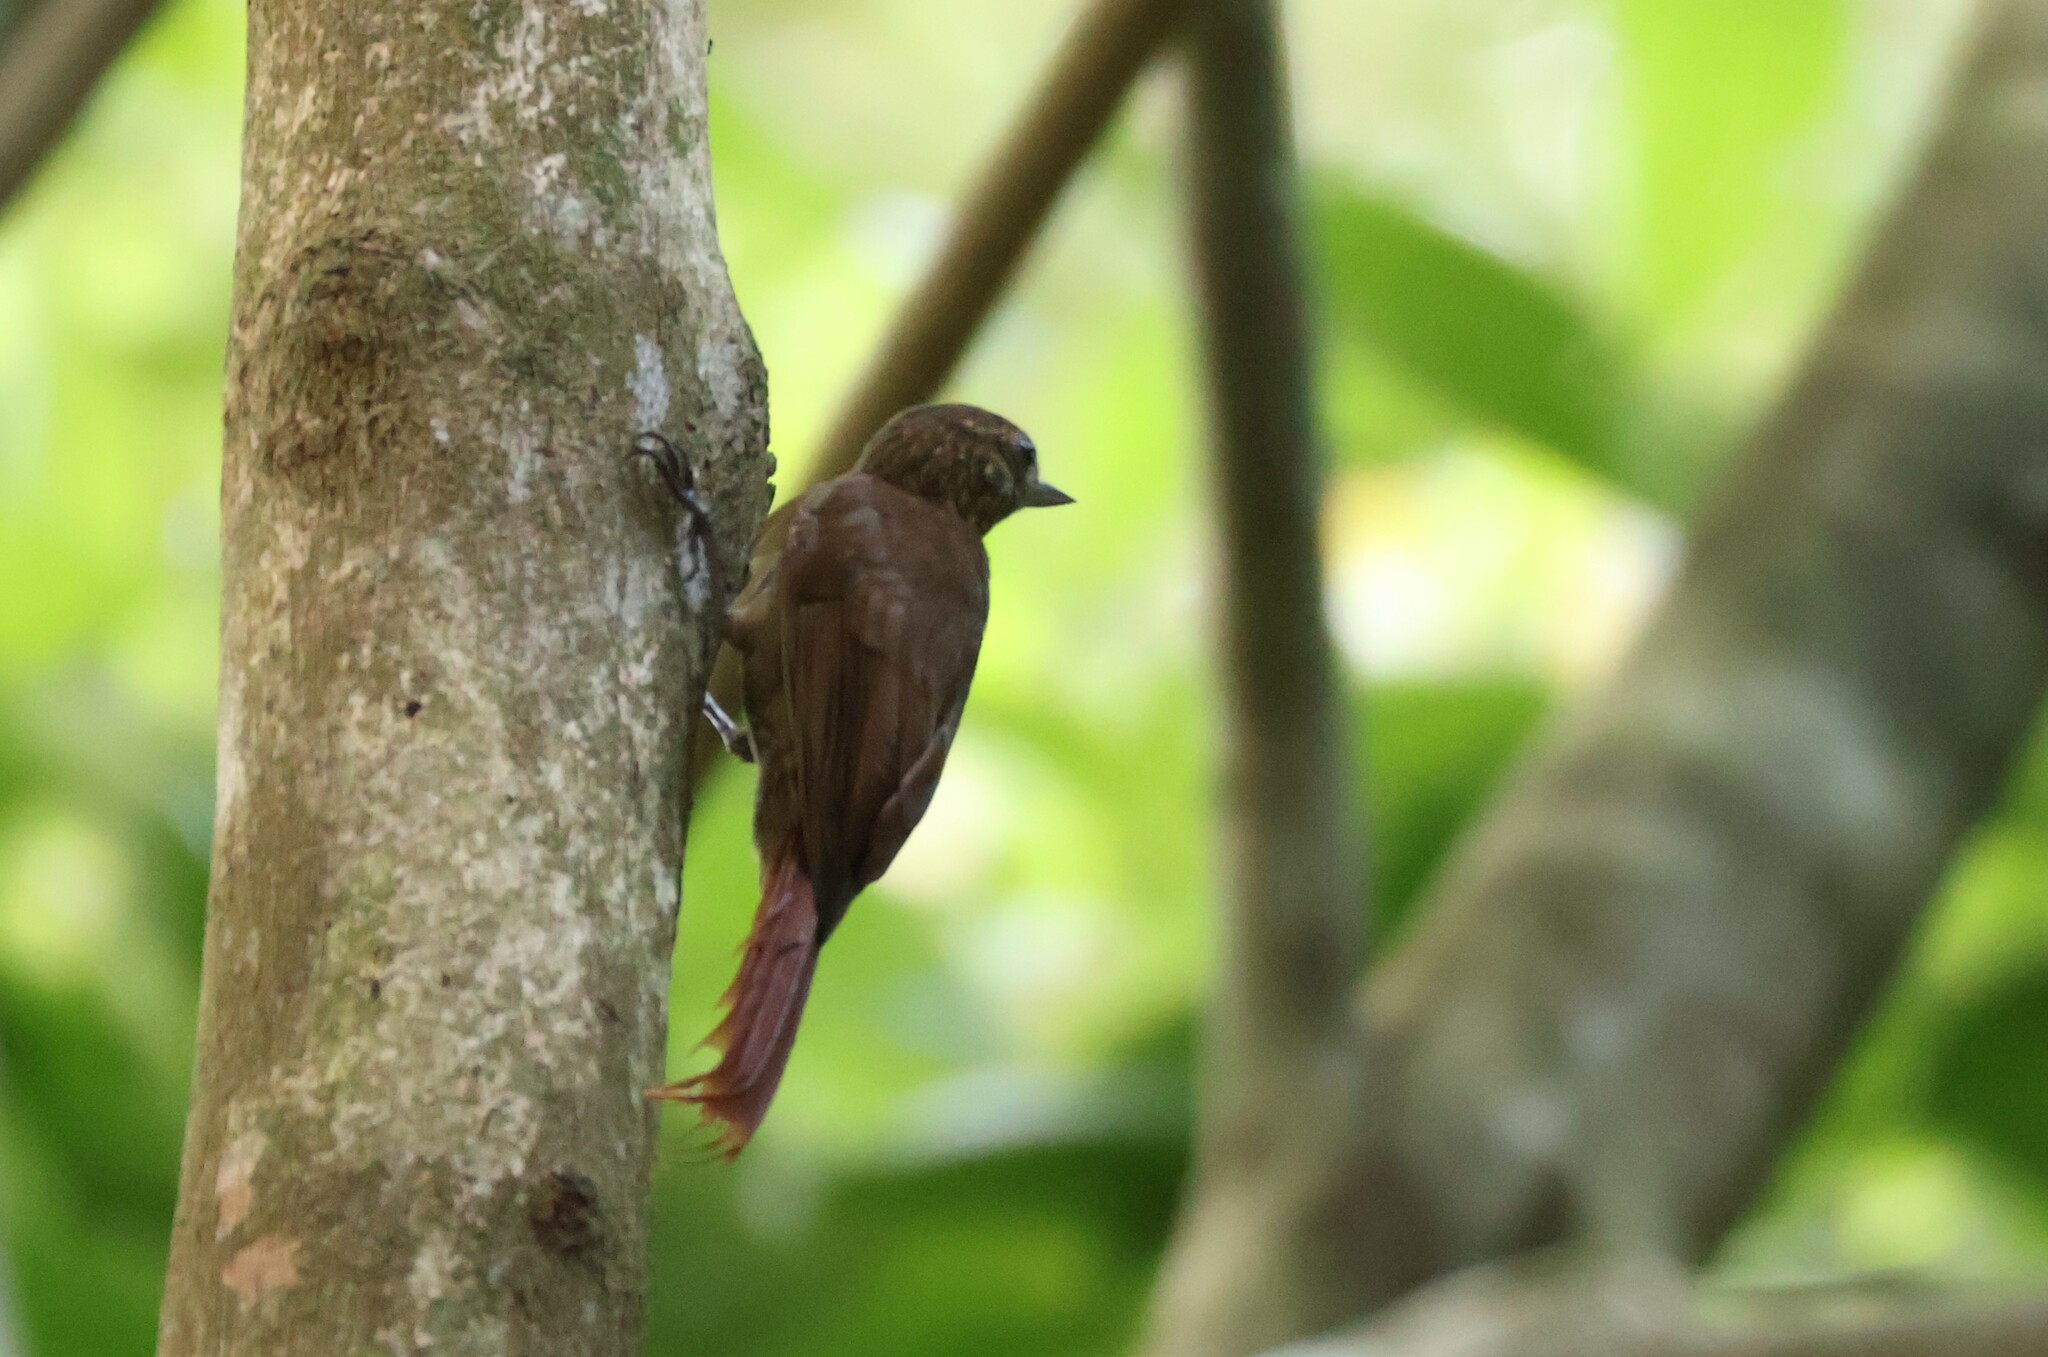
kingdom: Animalia
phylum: Chordata
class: Aves
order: Passeriformes
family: Furnariidae
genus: Glyphorynchus
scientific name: Glyphorynchus spirurus
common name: Wedge-billed woodcreeper
